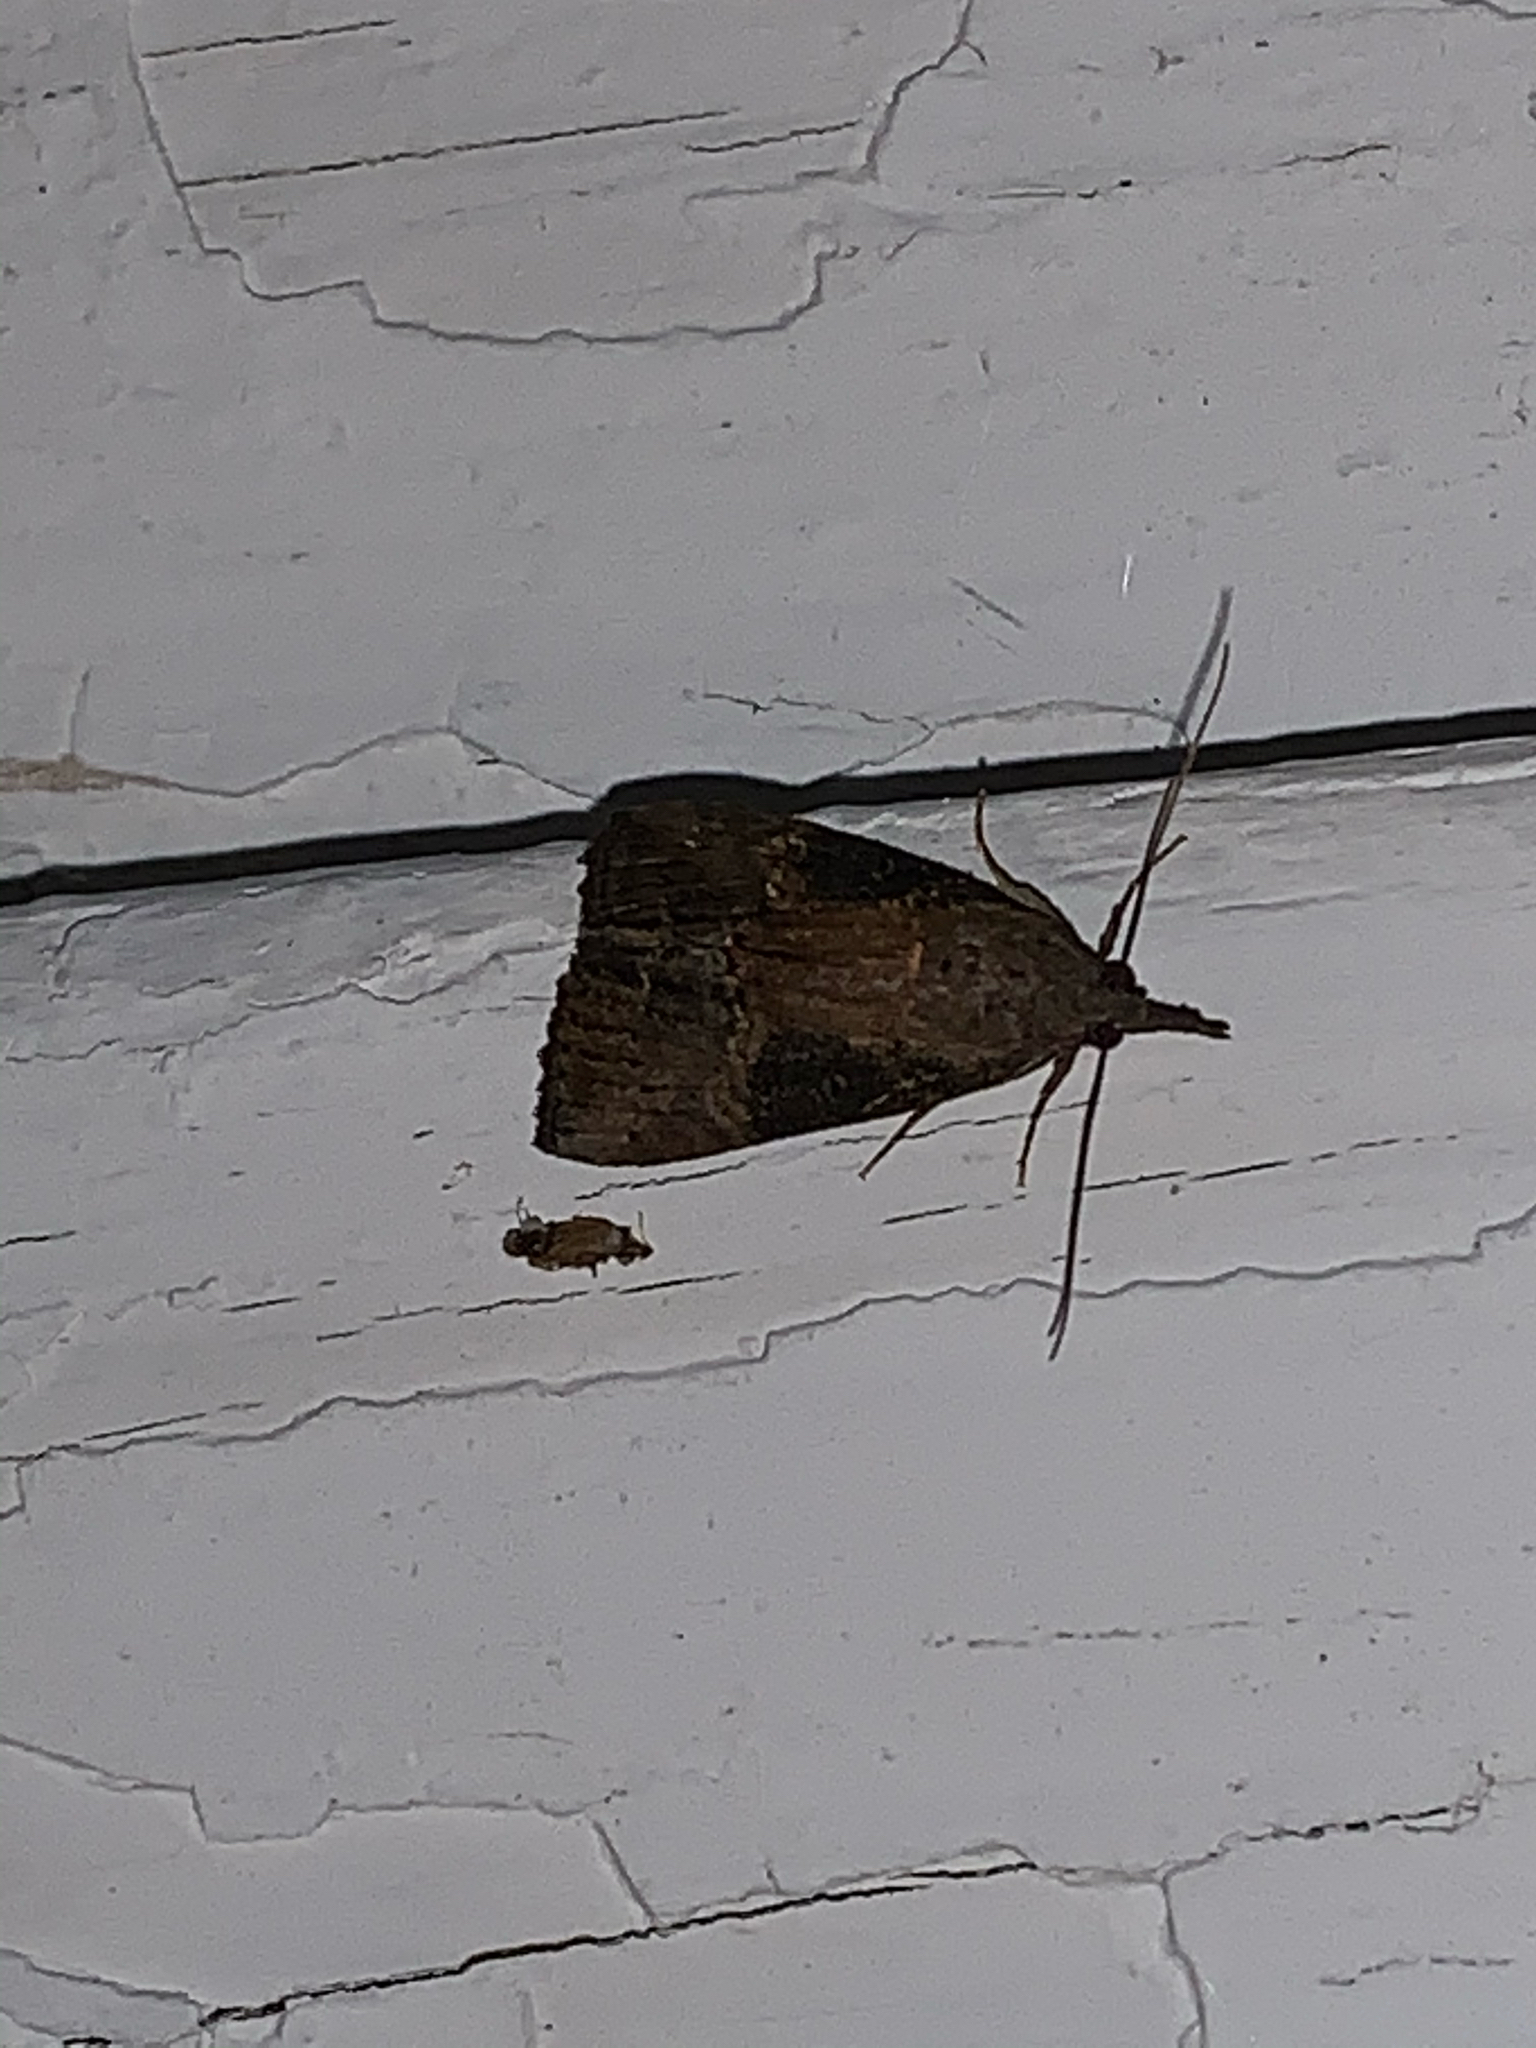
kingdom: Animalia
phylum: Arthropoda
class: Insecta
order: Lepidoptera
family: Erebidae
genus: Hypena
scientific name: Hypena scabra
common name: Green cloverworm
